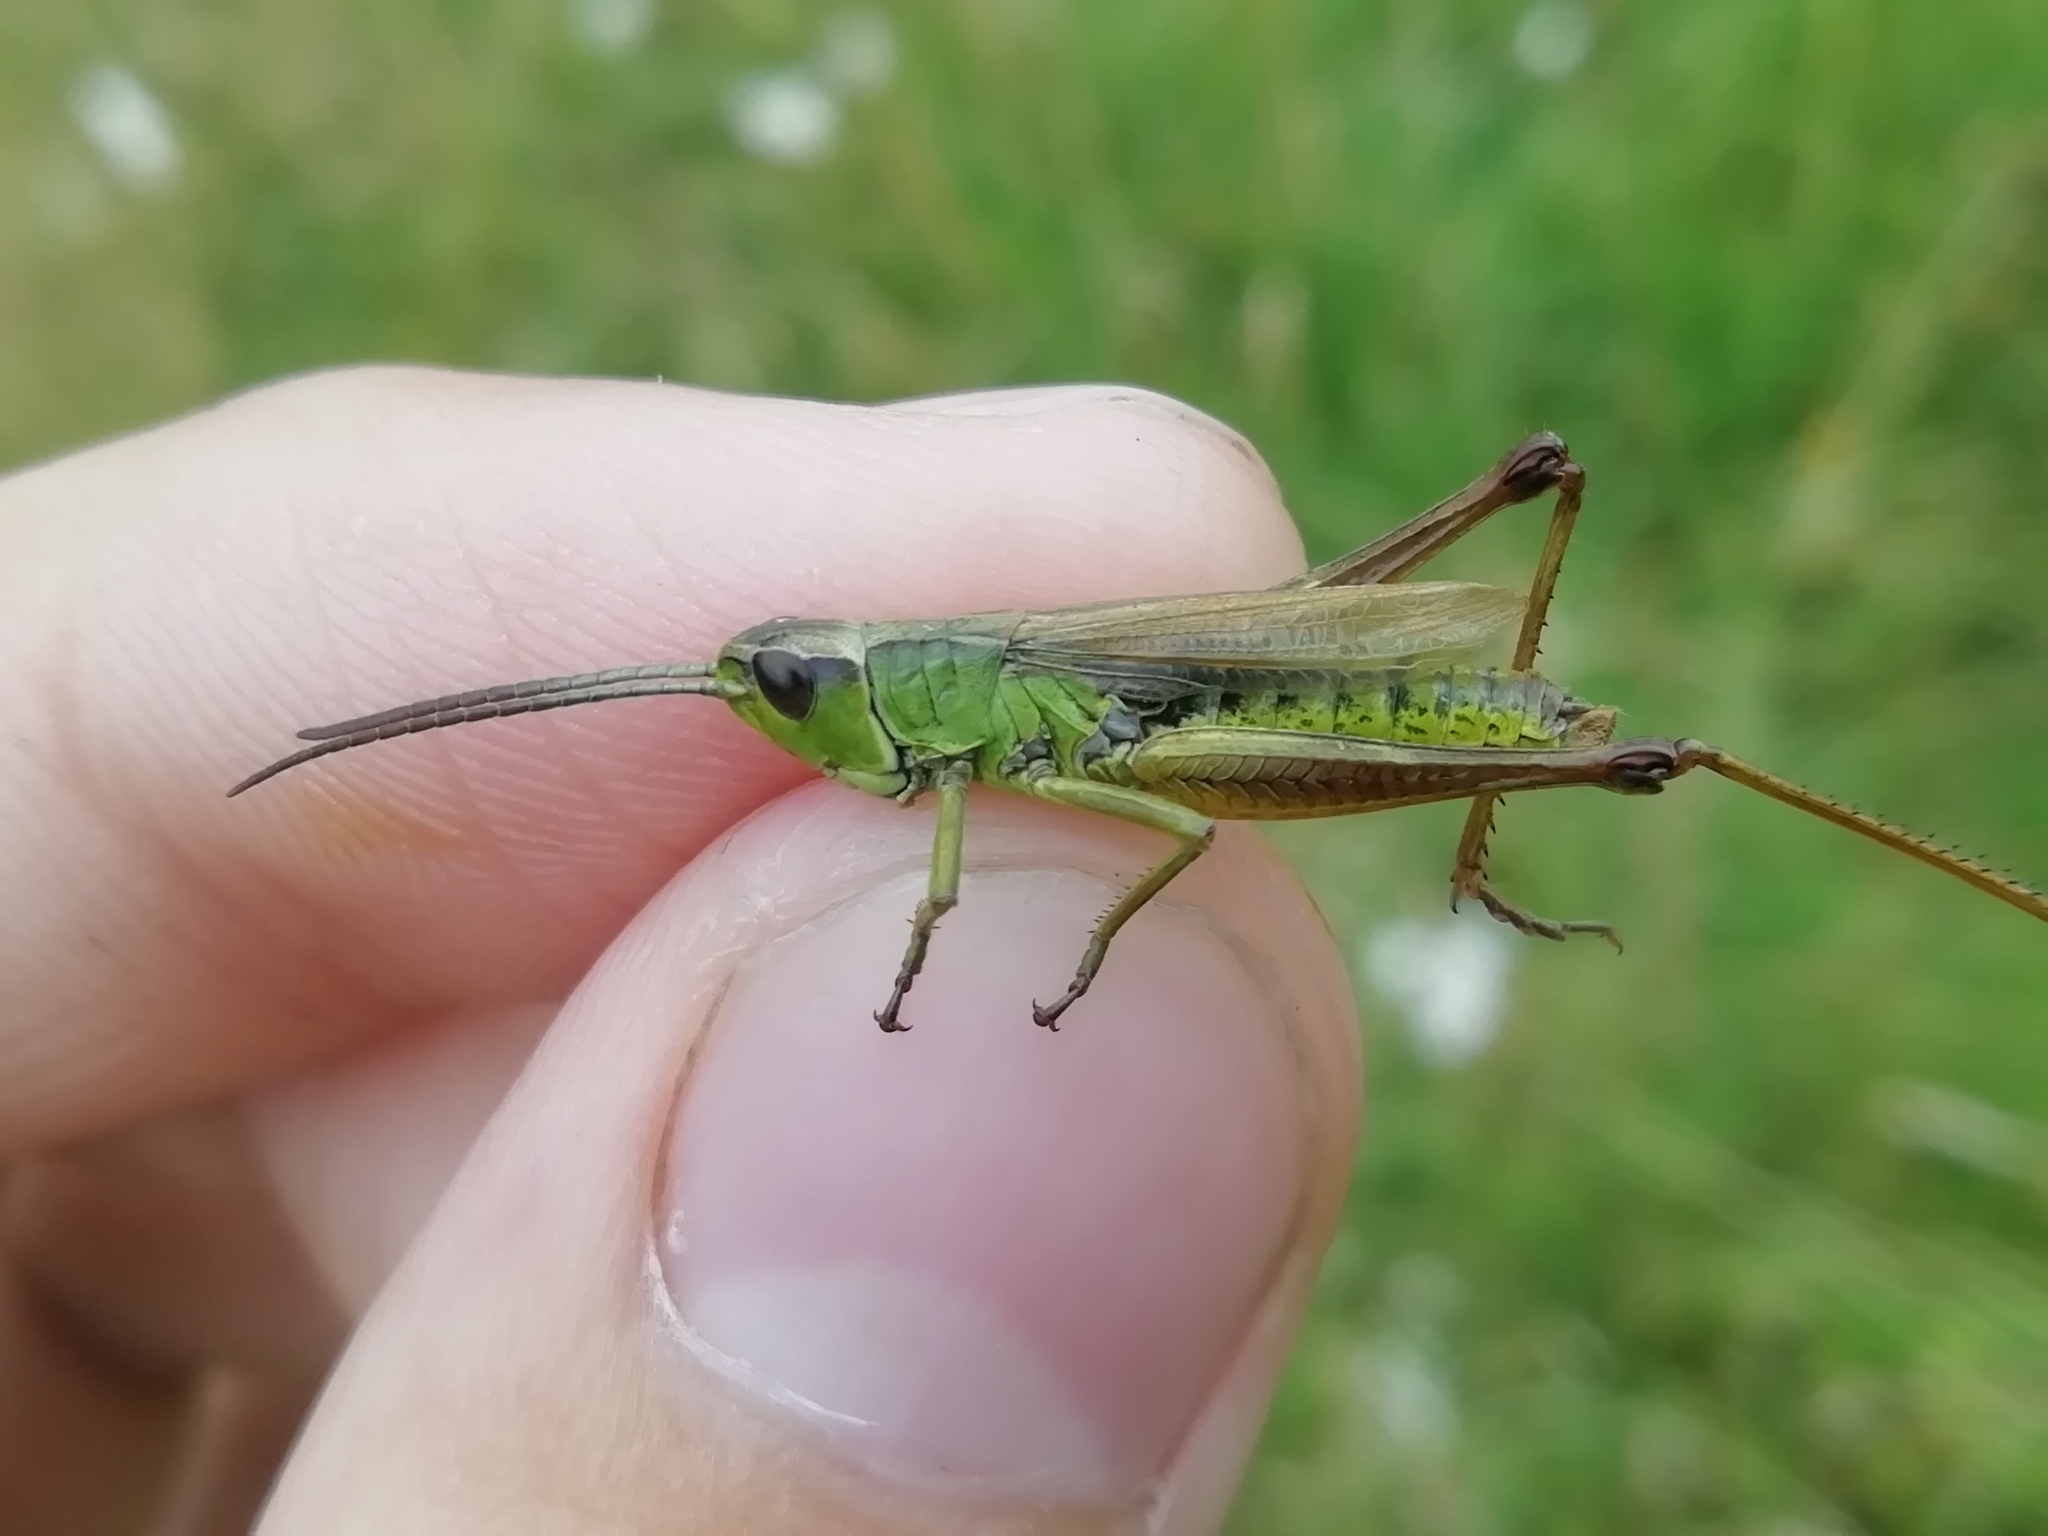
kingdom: Animalia
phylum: Arthropoda
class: Insecta
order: Orthoptera
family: Acrididae
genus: Pseudochorthippus
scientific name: Pseudochorthippus parallelus
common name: Meadow grasshopper
